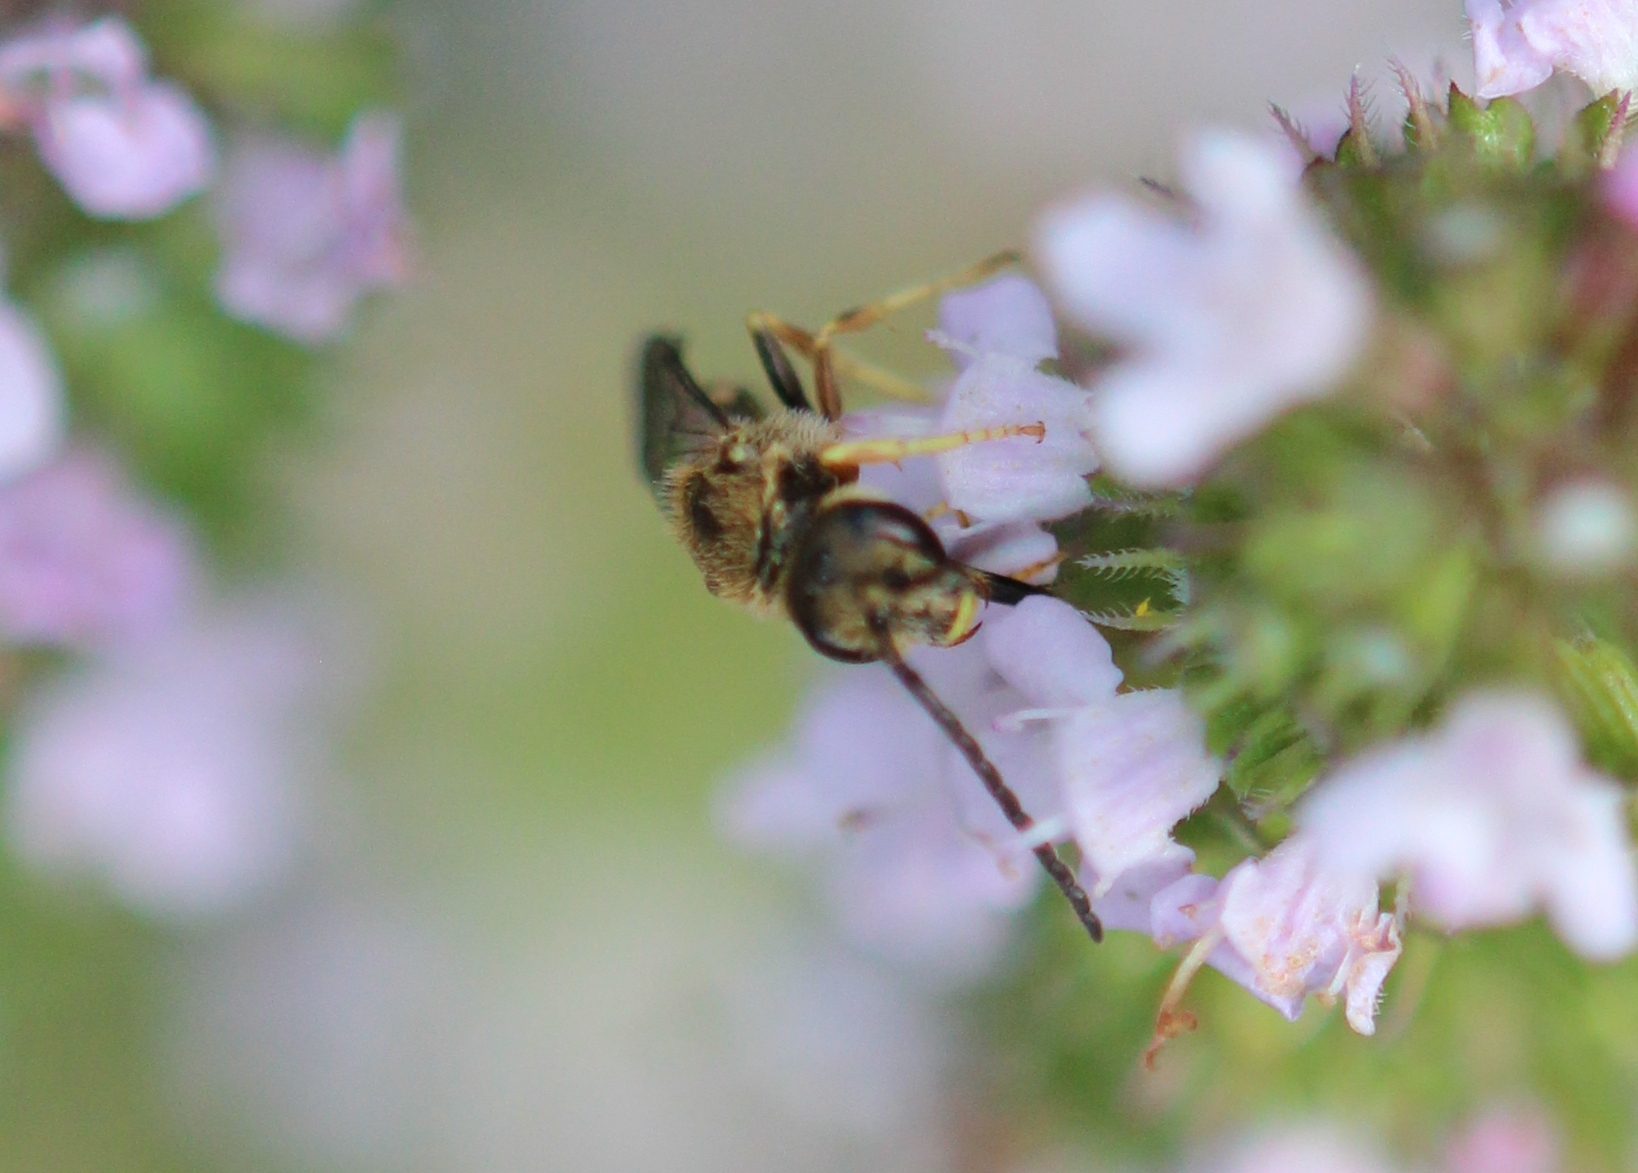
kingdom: Animalia
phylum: Arthropoda
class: Insecta
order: Hymenoptera
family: Halictidae
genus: Halictus
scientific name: Halictus confusus
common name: Southern bronze furrow bee
